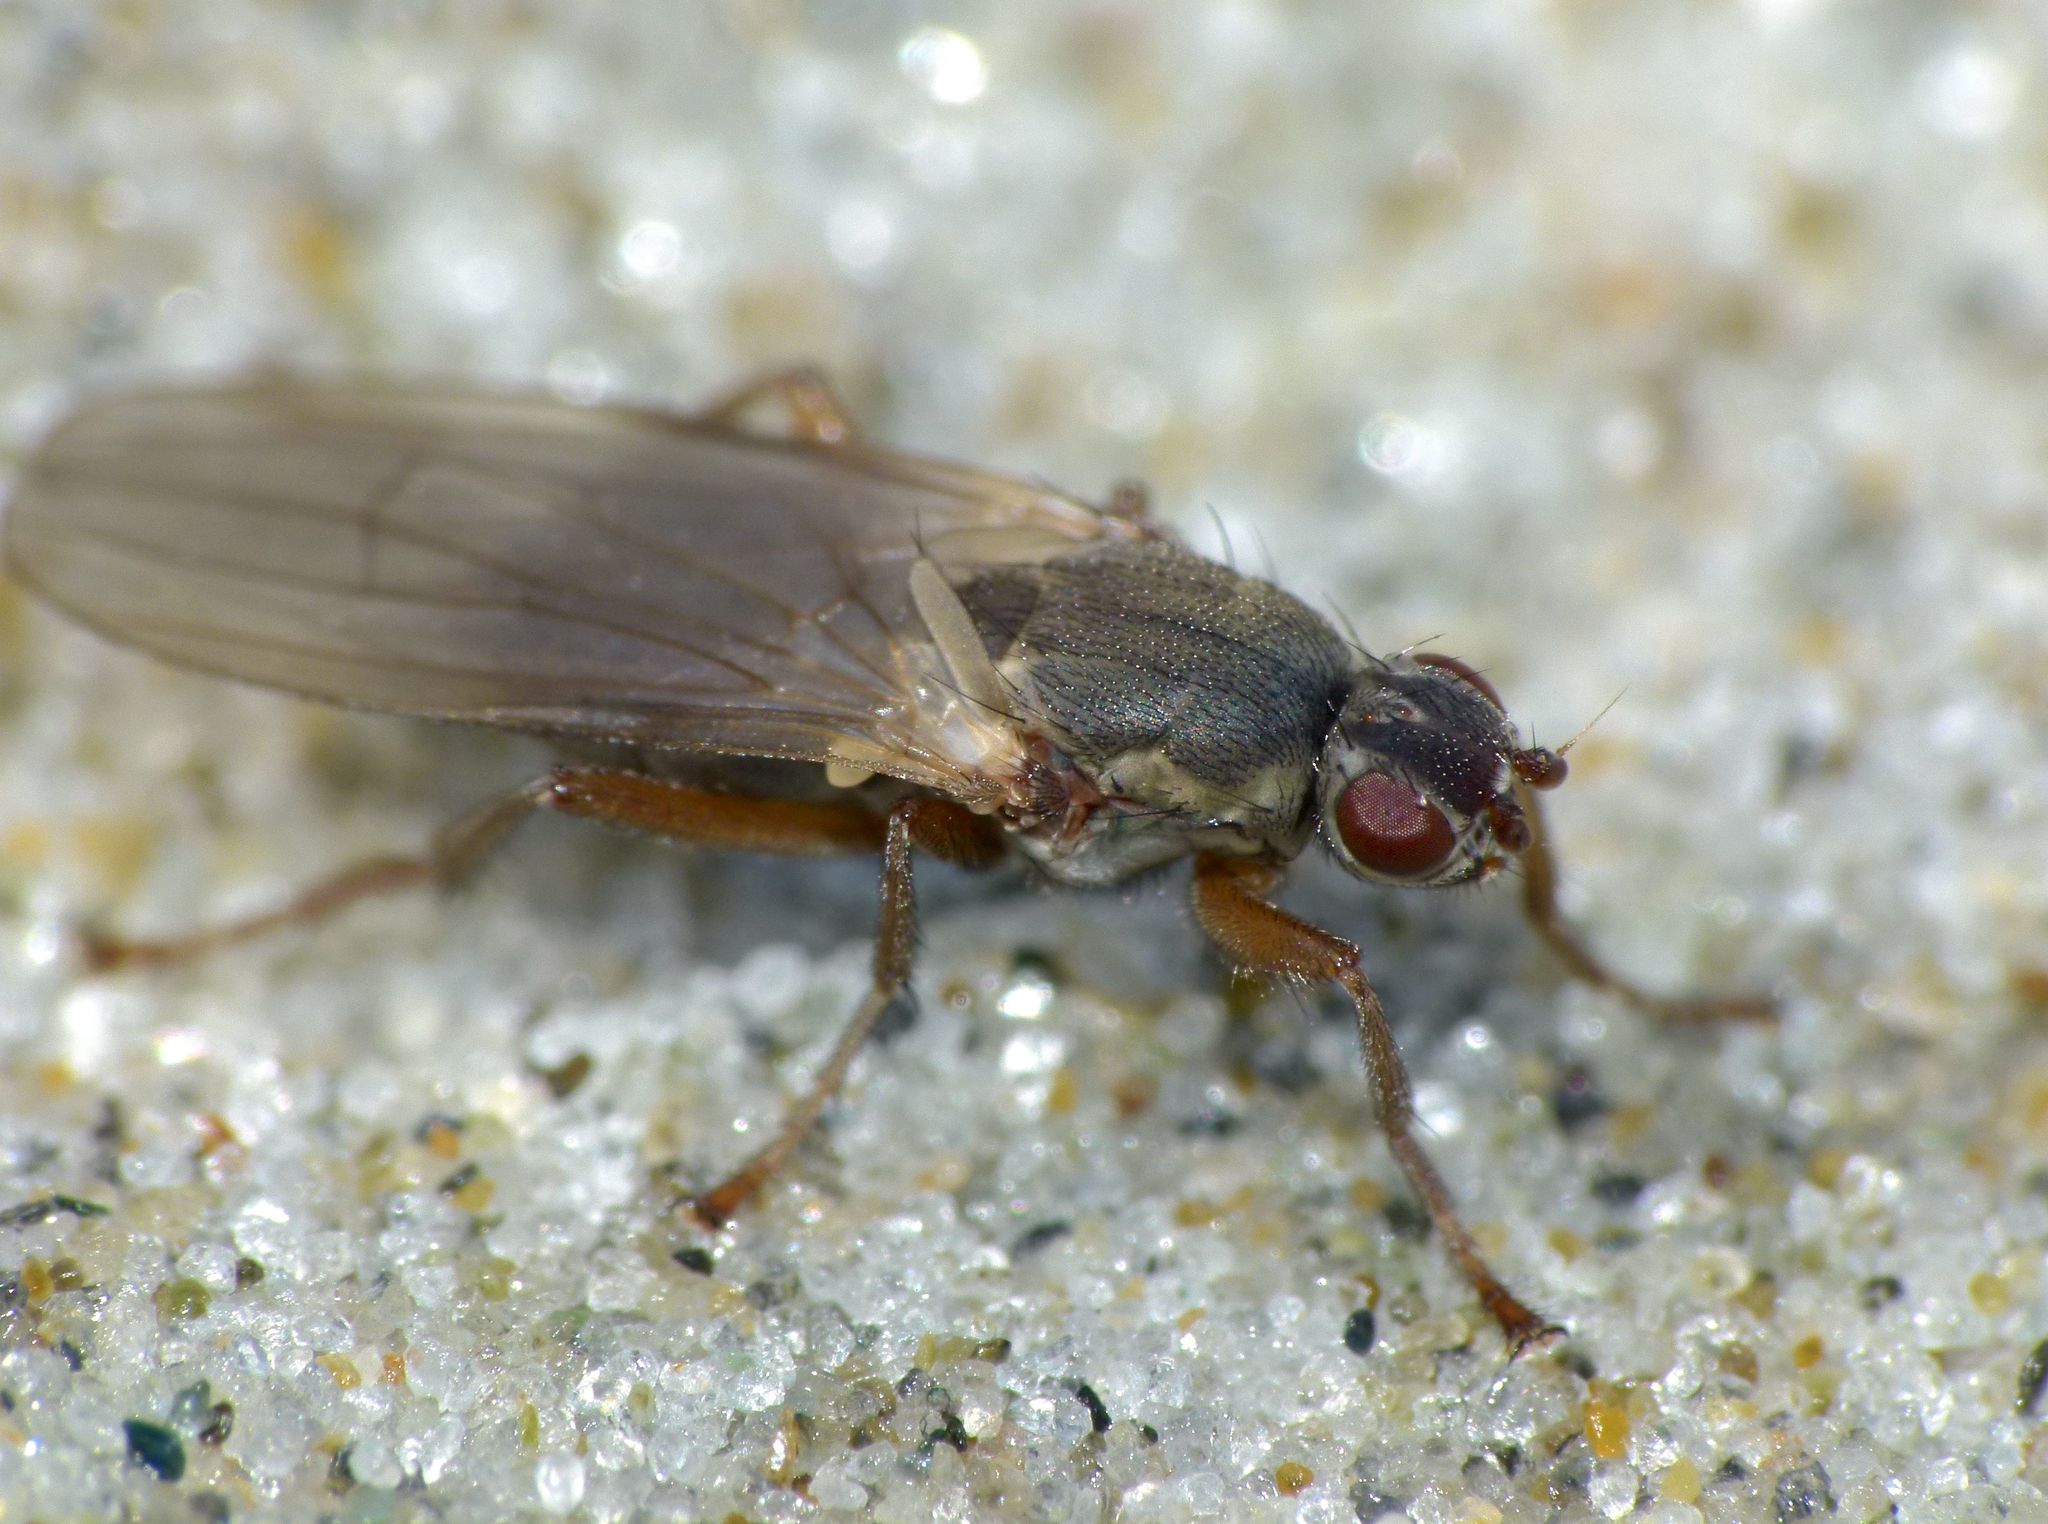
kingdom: Animalia
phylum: Arthropoda
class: Insecta
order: Diptera
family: Coelopidae
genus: Coelopella
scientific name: Coelopella curvipes
